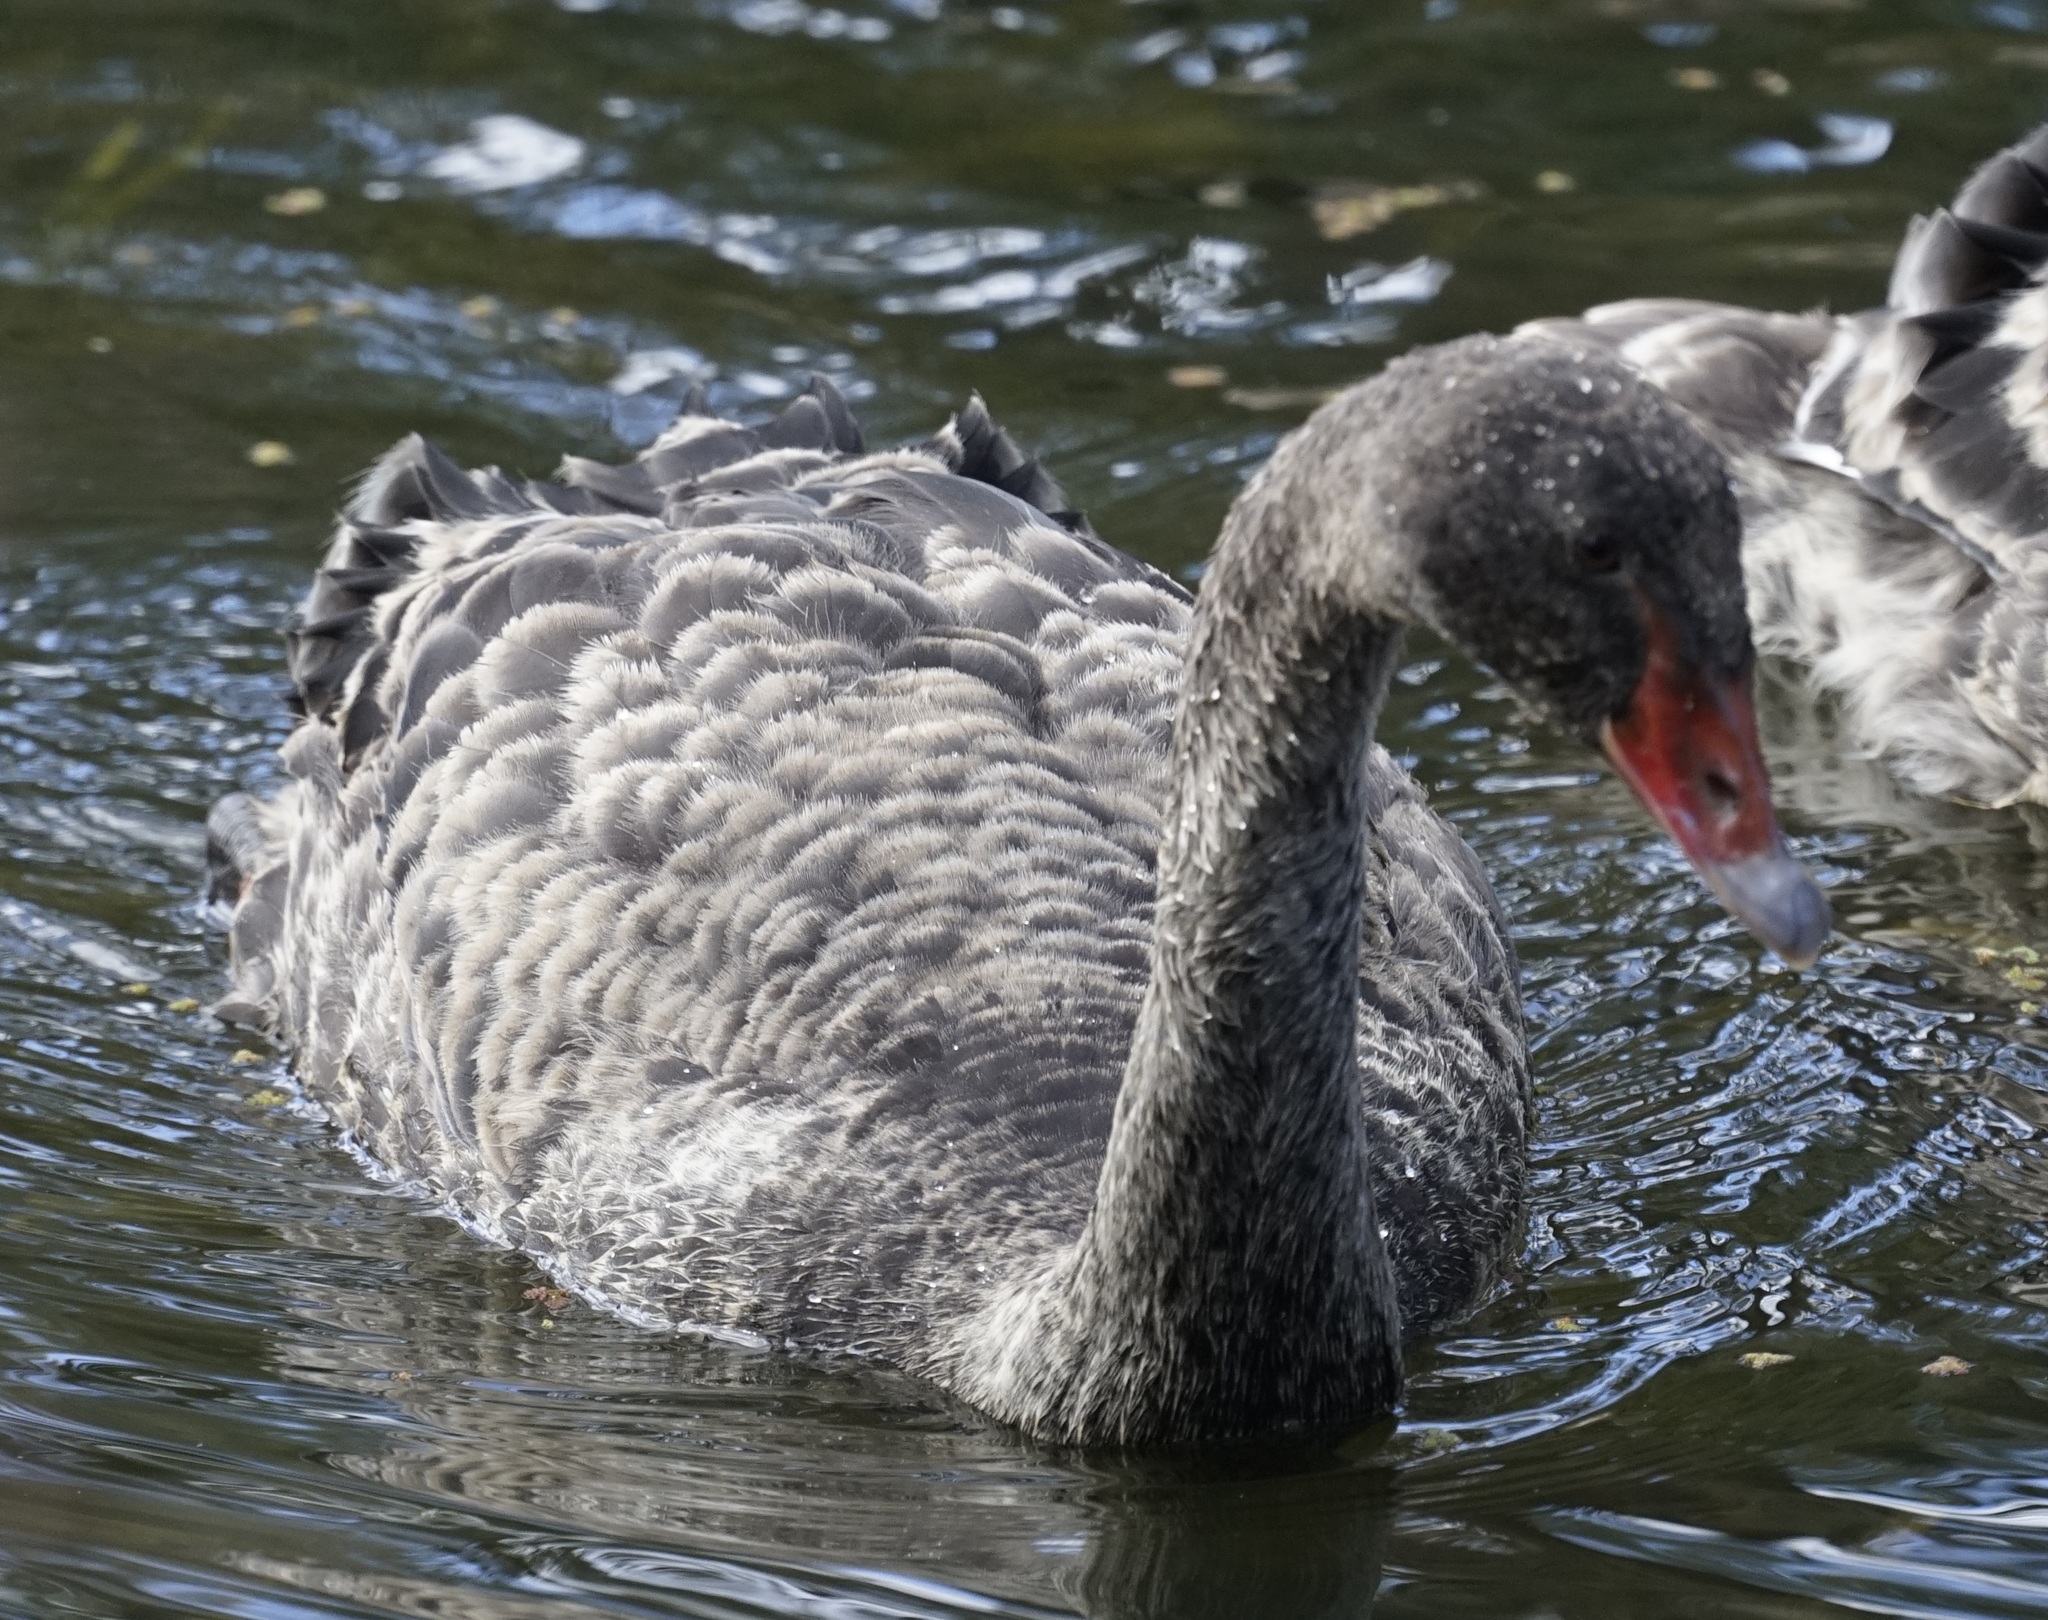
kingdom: Animalia
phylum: Chordata
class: Aves
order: Anseriformes
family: Anatidae
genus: Cygnus
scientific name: Cygnus atratus
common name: Black swan
